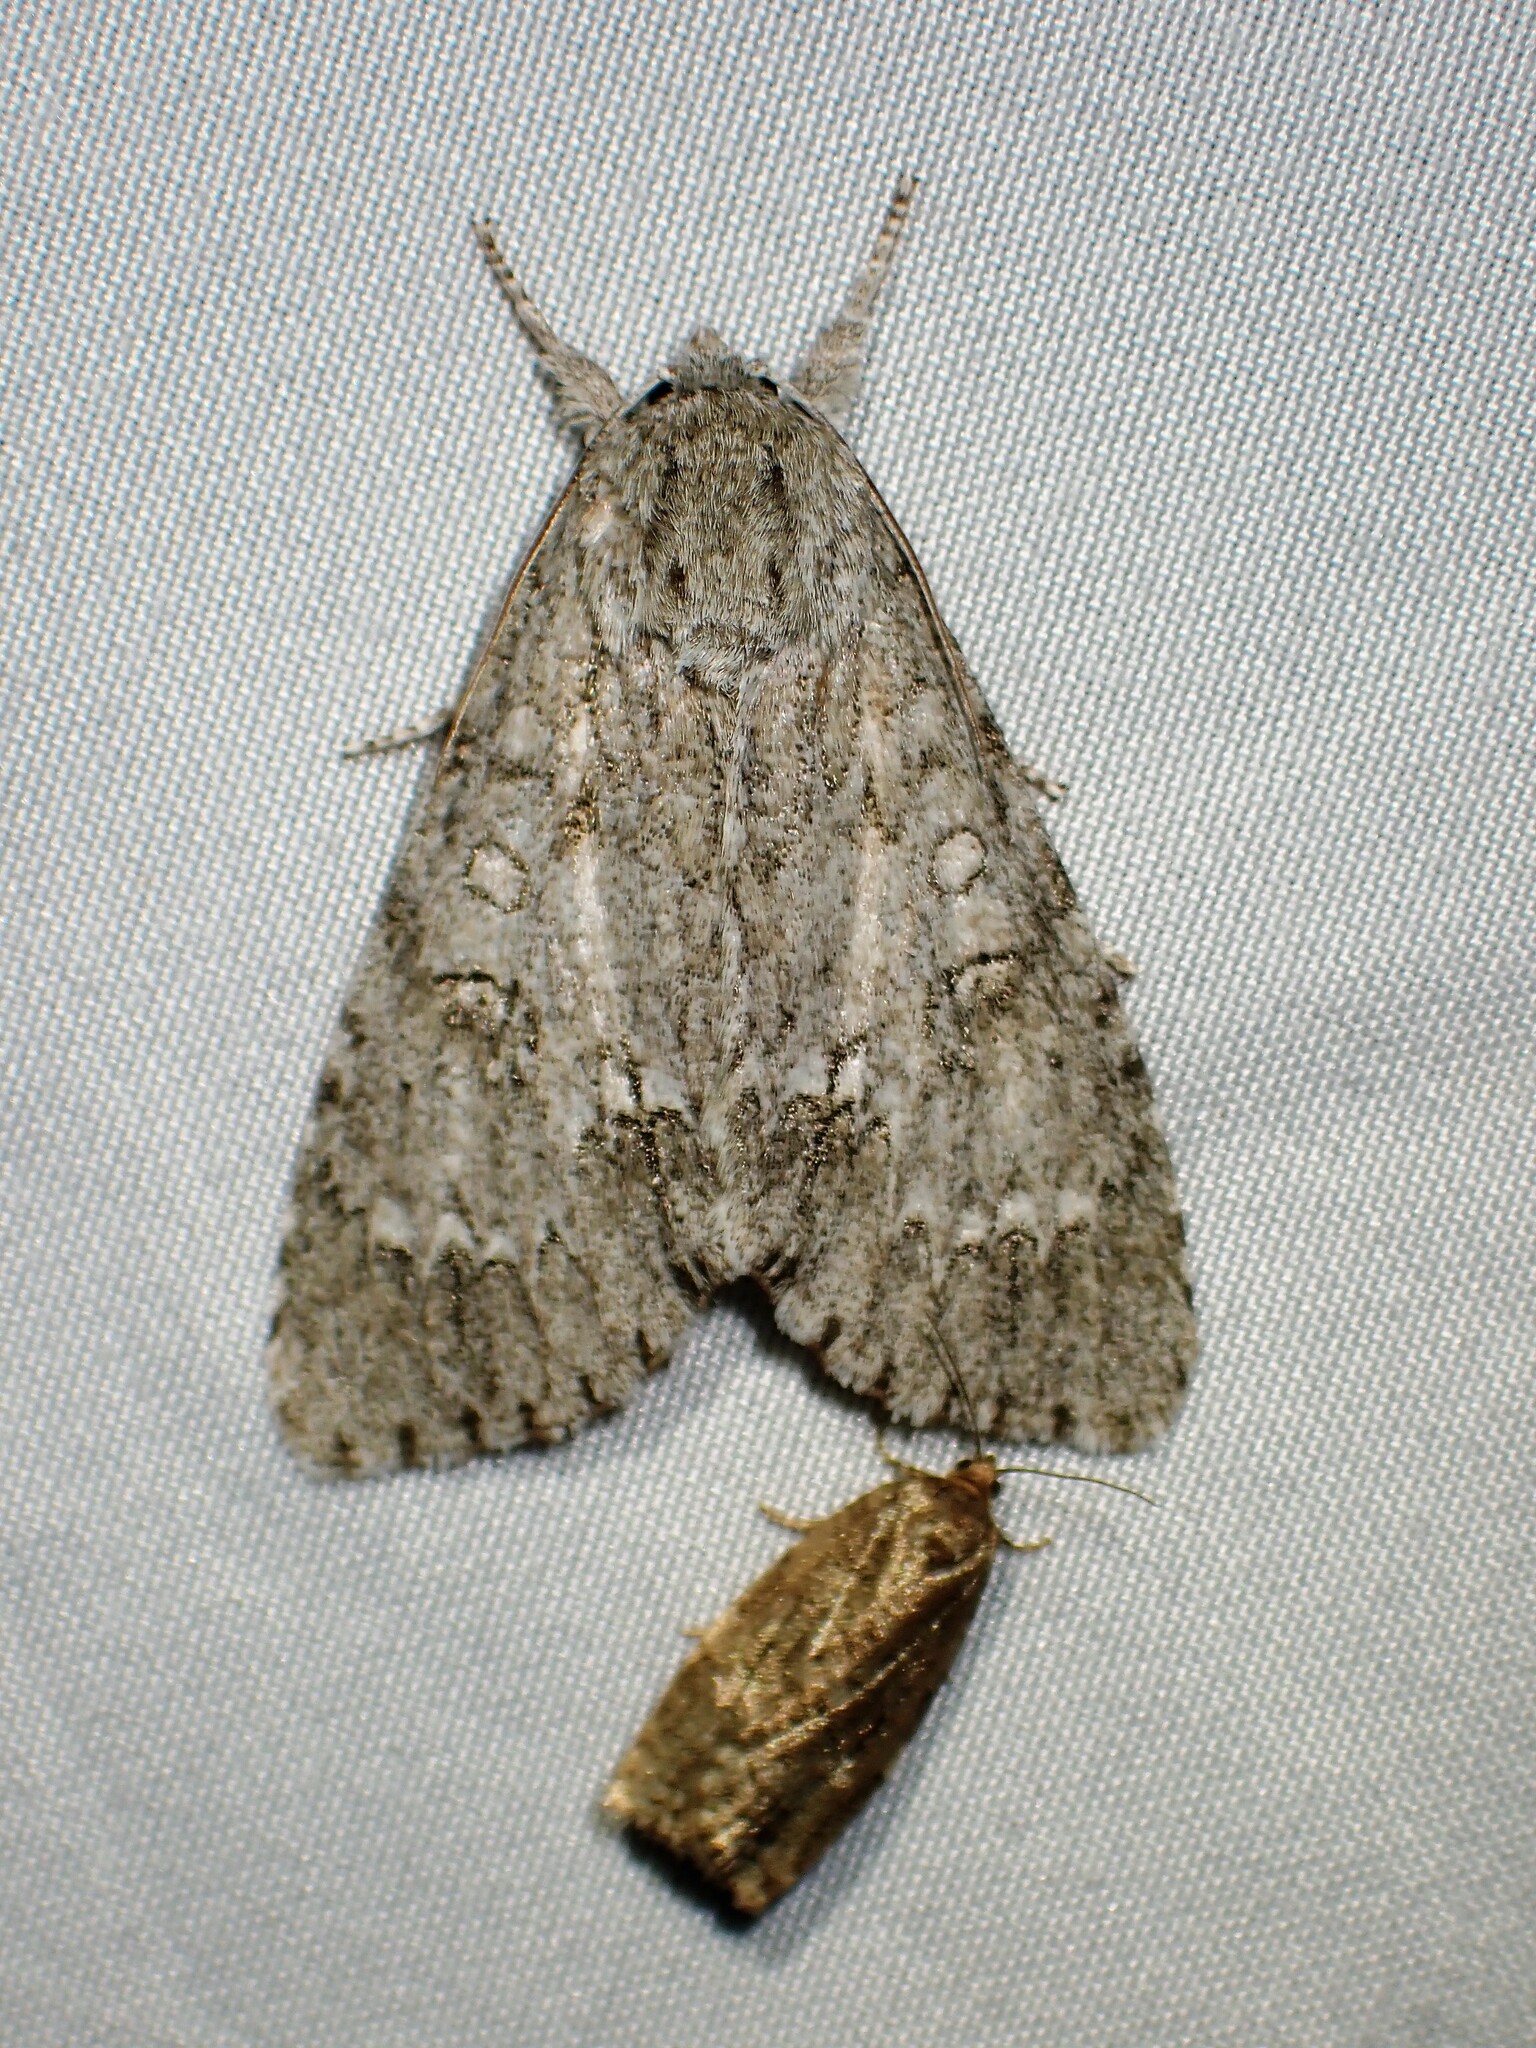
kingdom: Animalia
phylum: Arthropoda
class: Insecta
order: Lepidoptera
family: Noctuidae
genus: Acronicta
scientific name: Acronicta impleta
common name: Powdered dagger
